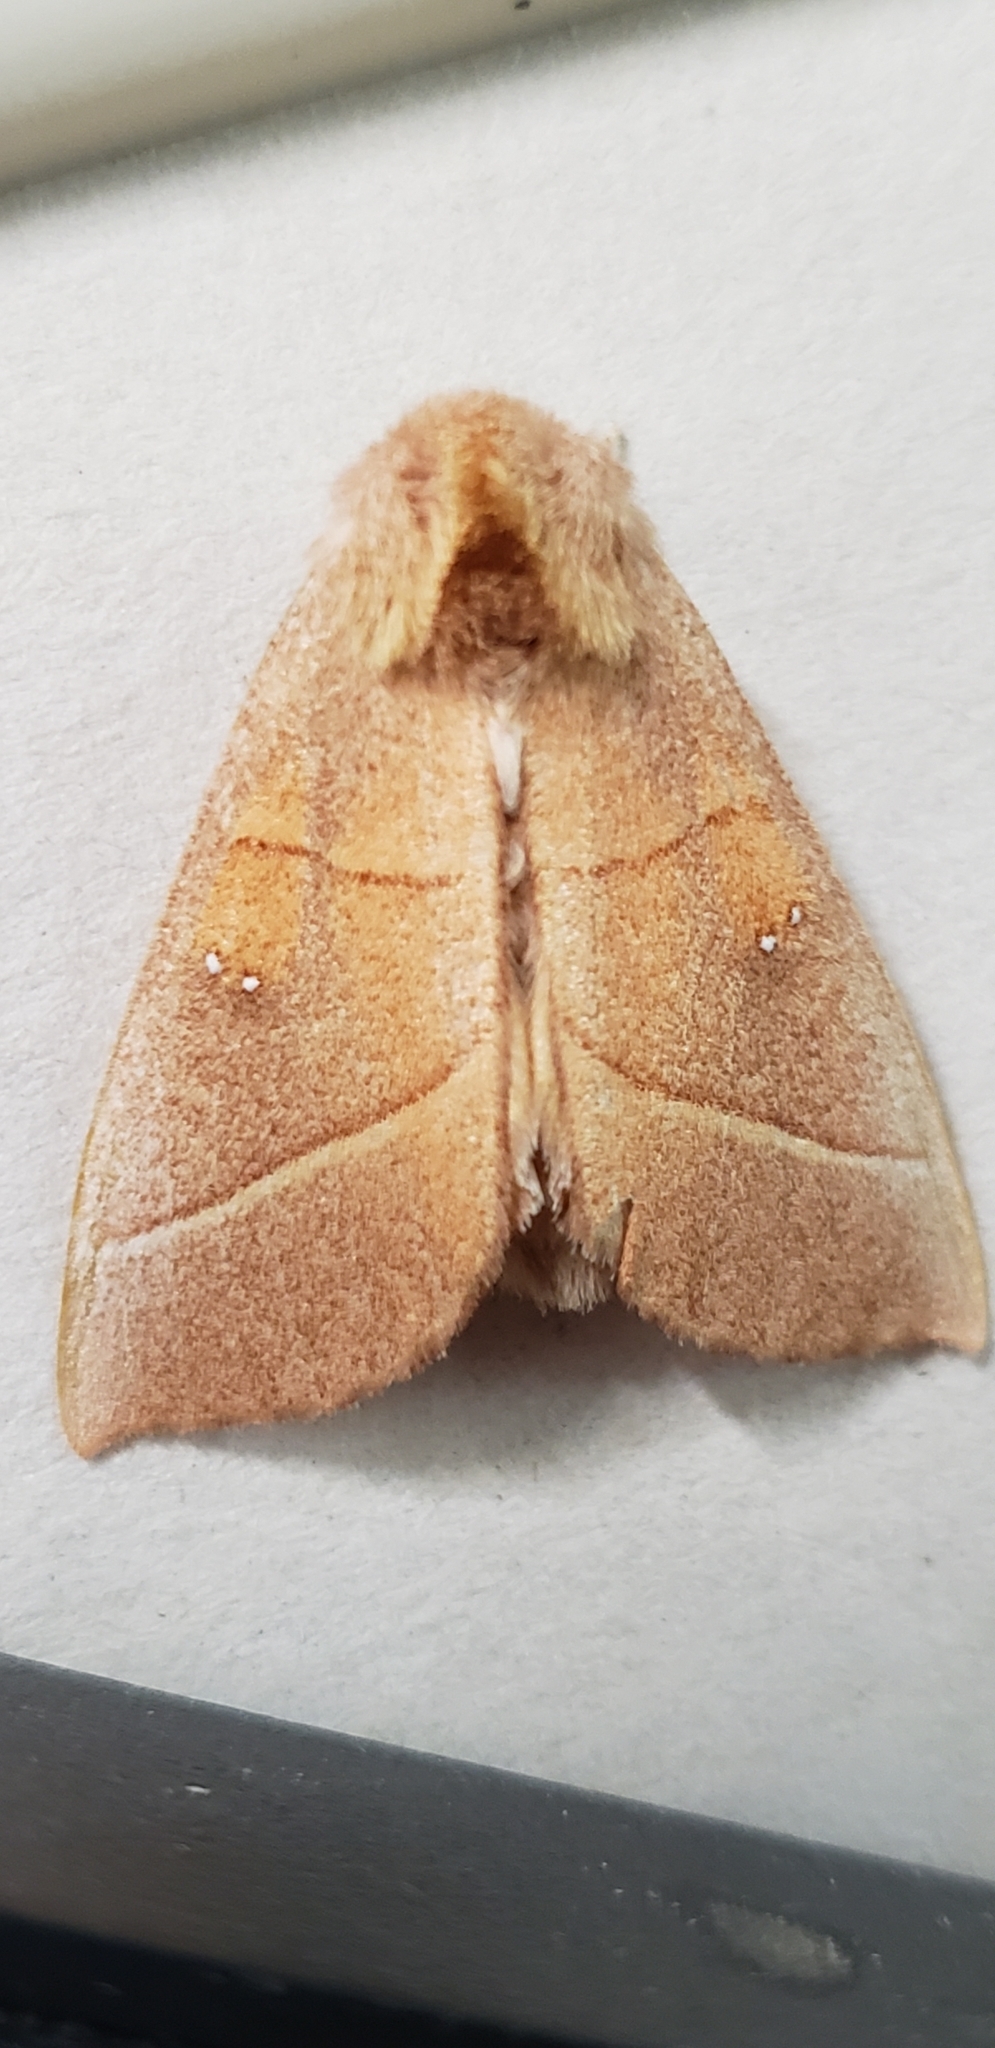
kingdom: Animalia
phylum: Arthropoda
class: Insecta
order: Lepidoptera
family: Notodontidae
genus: Nadata
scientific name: Nadata gibbosa
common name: White-dotted prominent
